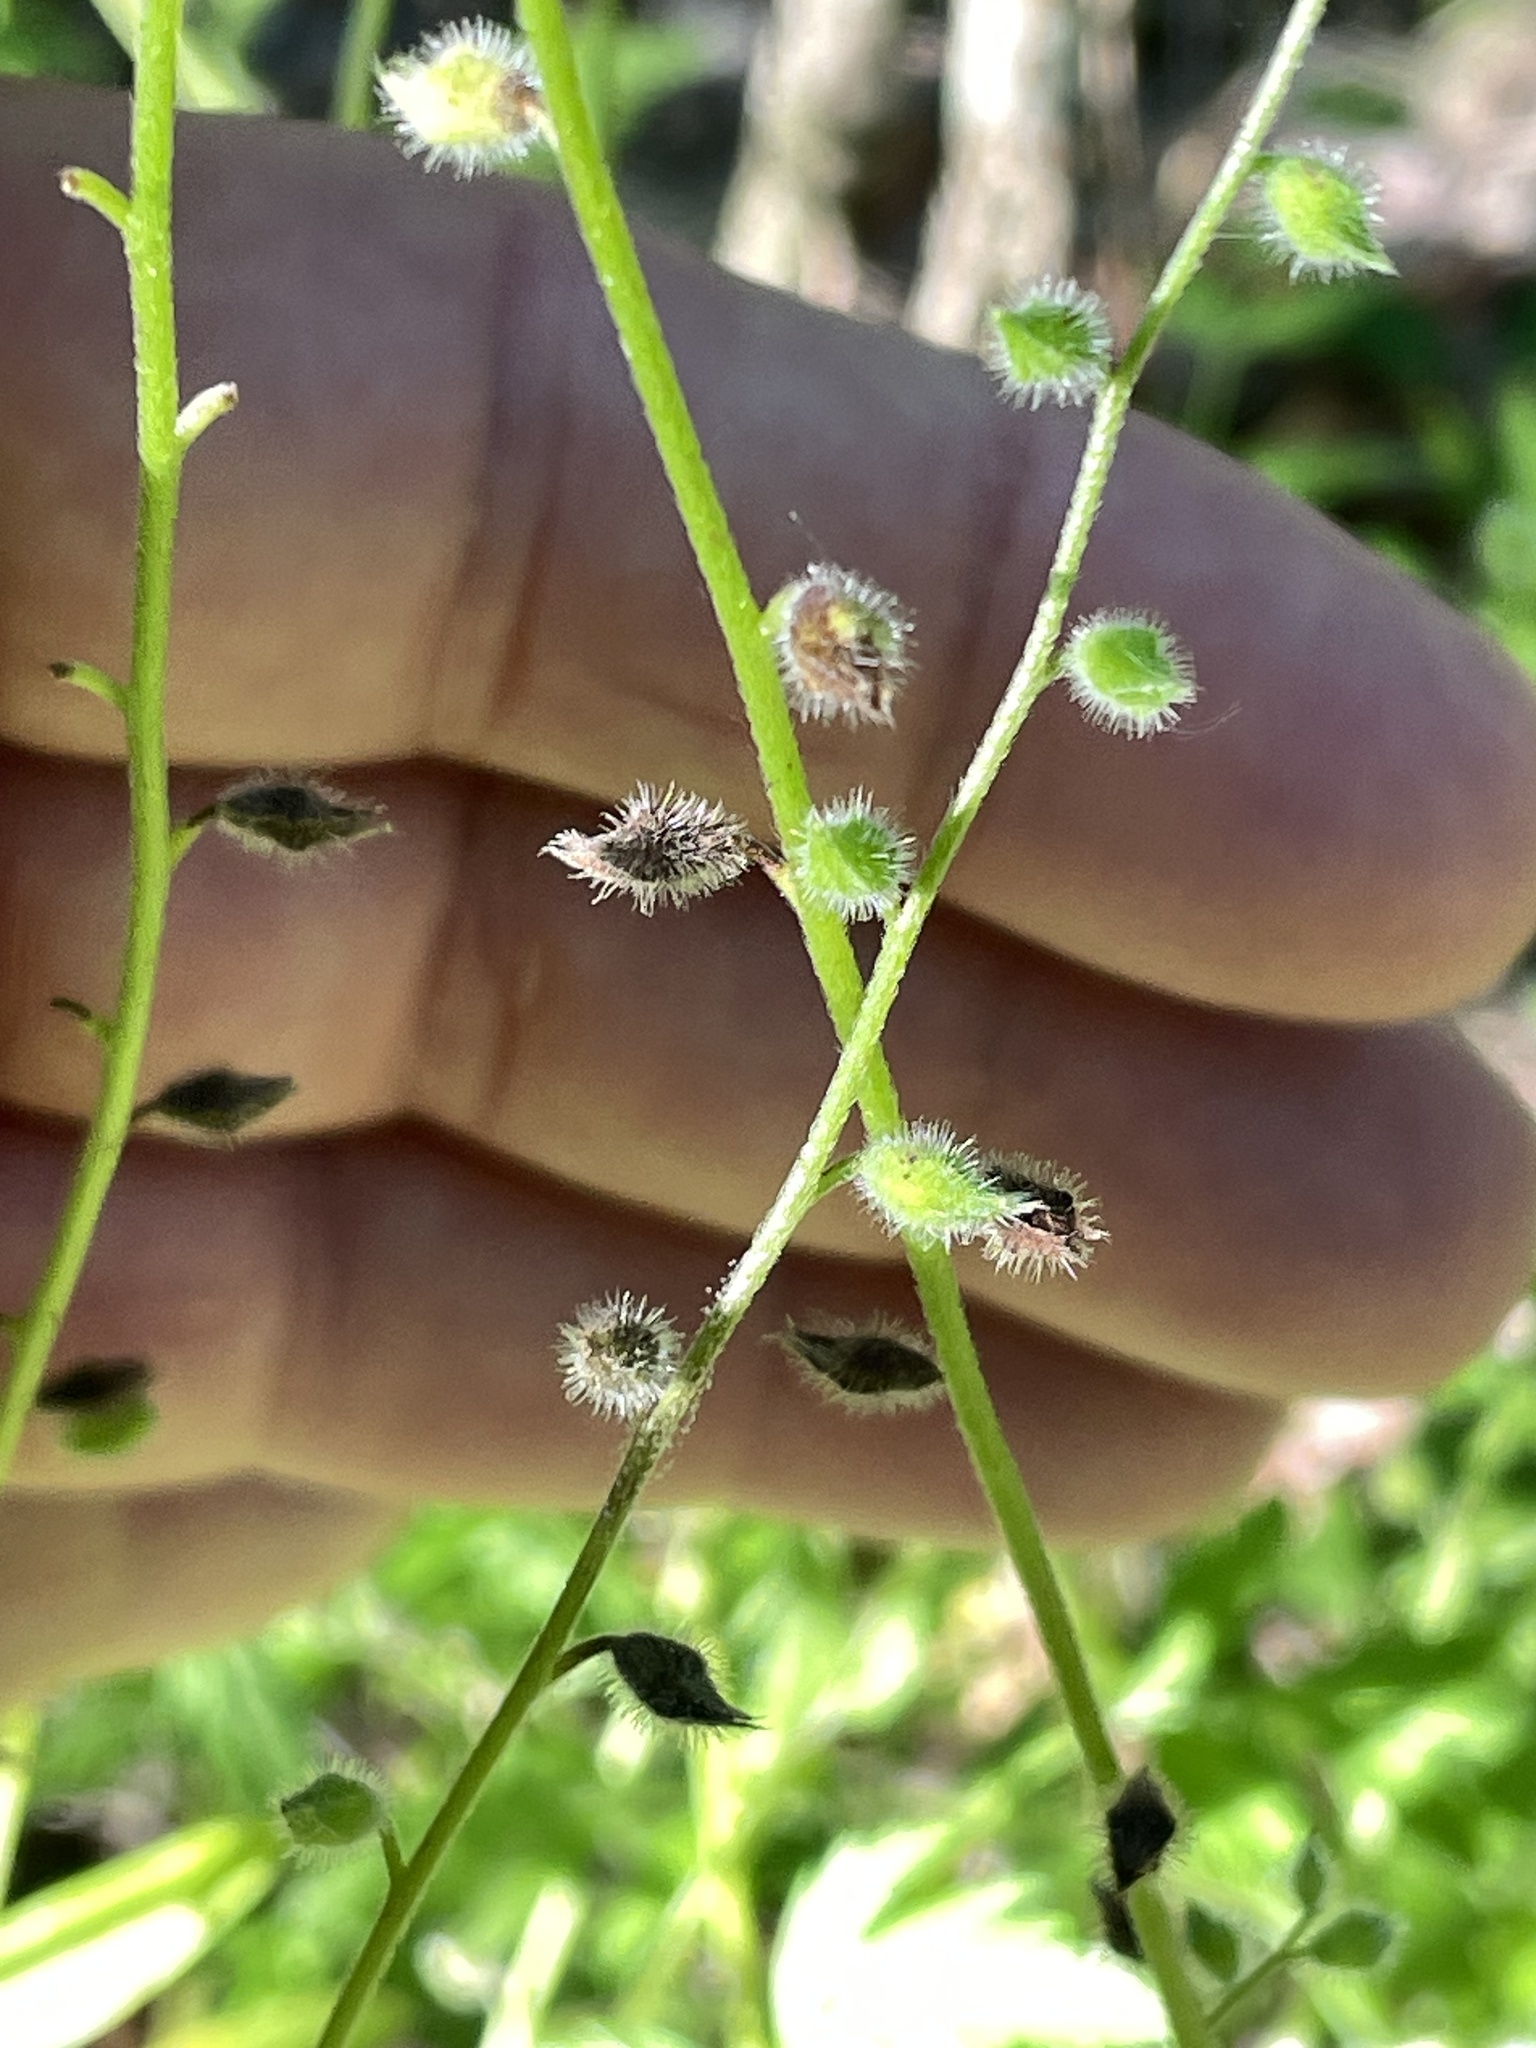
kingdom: Plantae
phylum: Tracheophyta
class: Magnoliopsida
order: Boraginales
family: Boraginaceae
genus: Myosotis
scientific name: Myosotis macrosperma
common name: Large-seed forget-me-not
